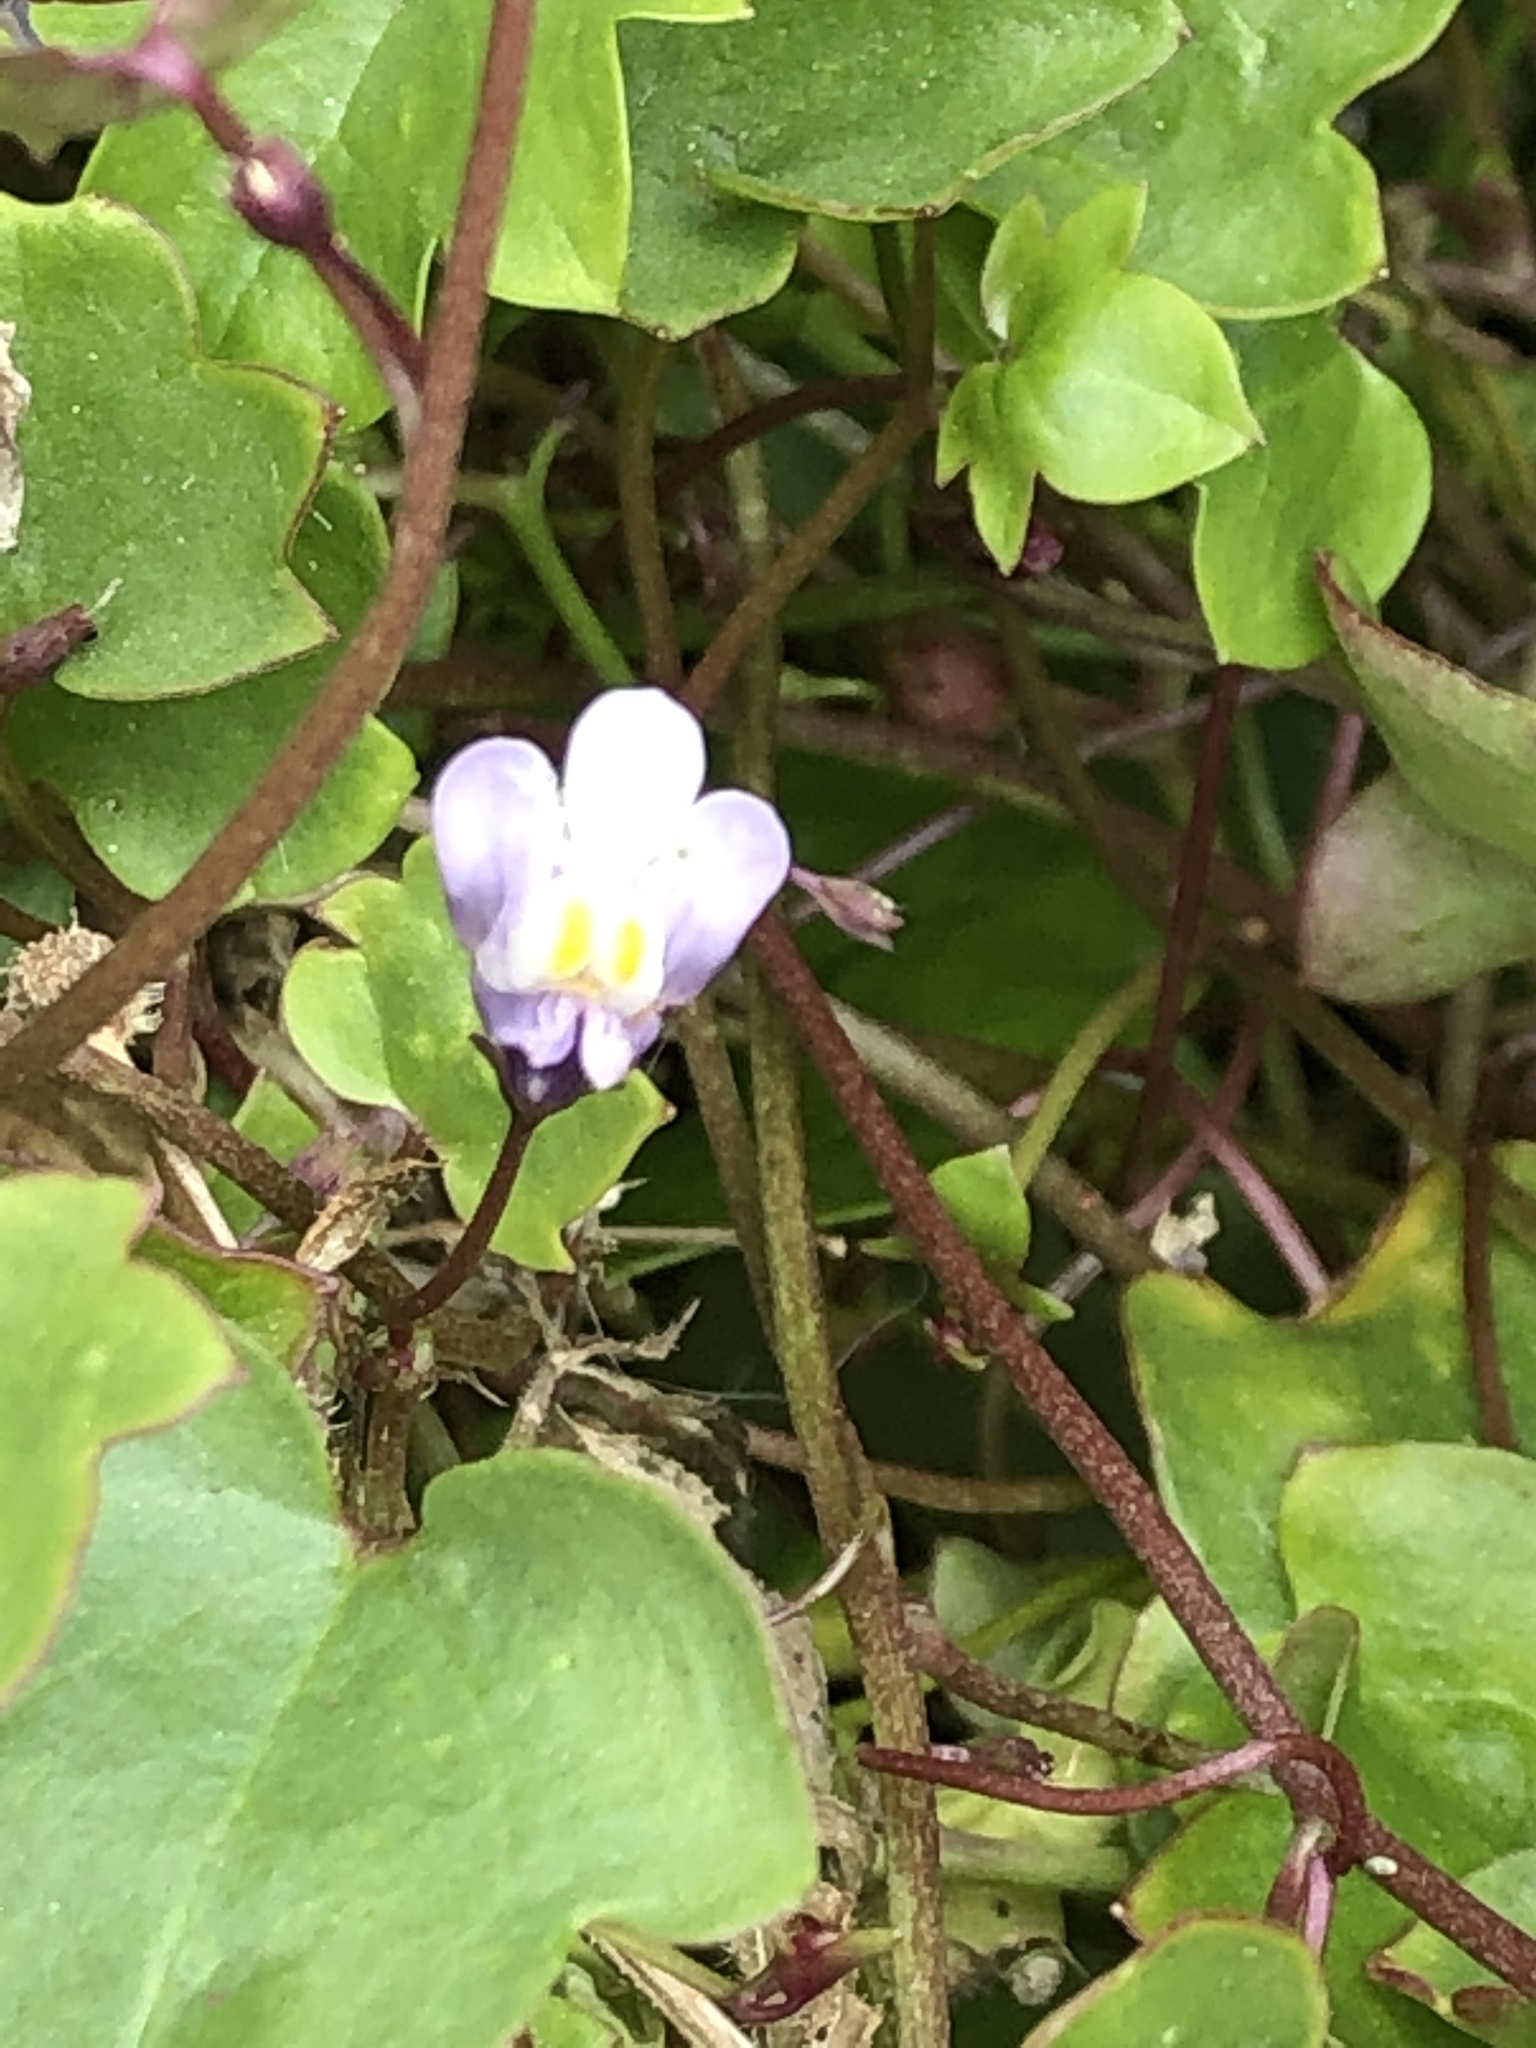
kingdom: Plantae
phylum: Tracheophyta
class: Magnoliopsida
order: Lamiales
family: Plantaginaceae
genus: Cymbalaria
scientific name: Cymbalaria muralis
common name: Ivy-leaved toadflax
